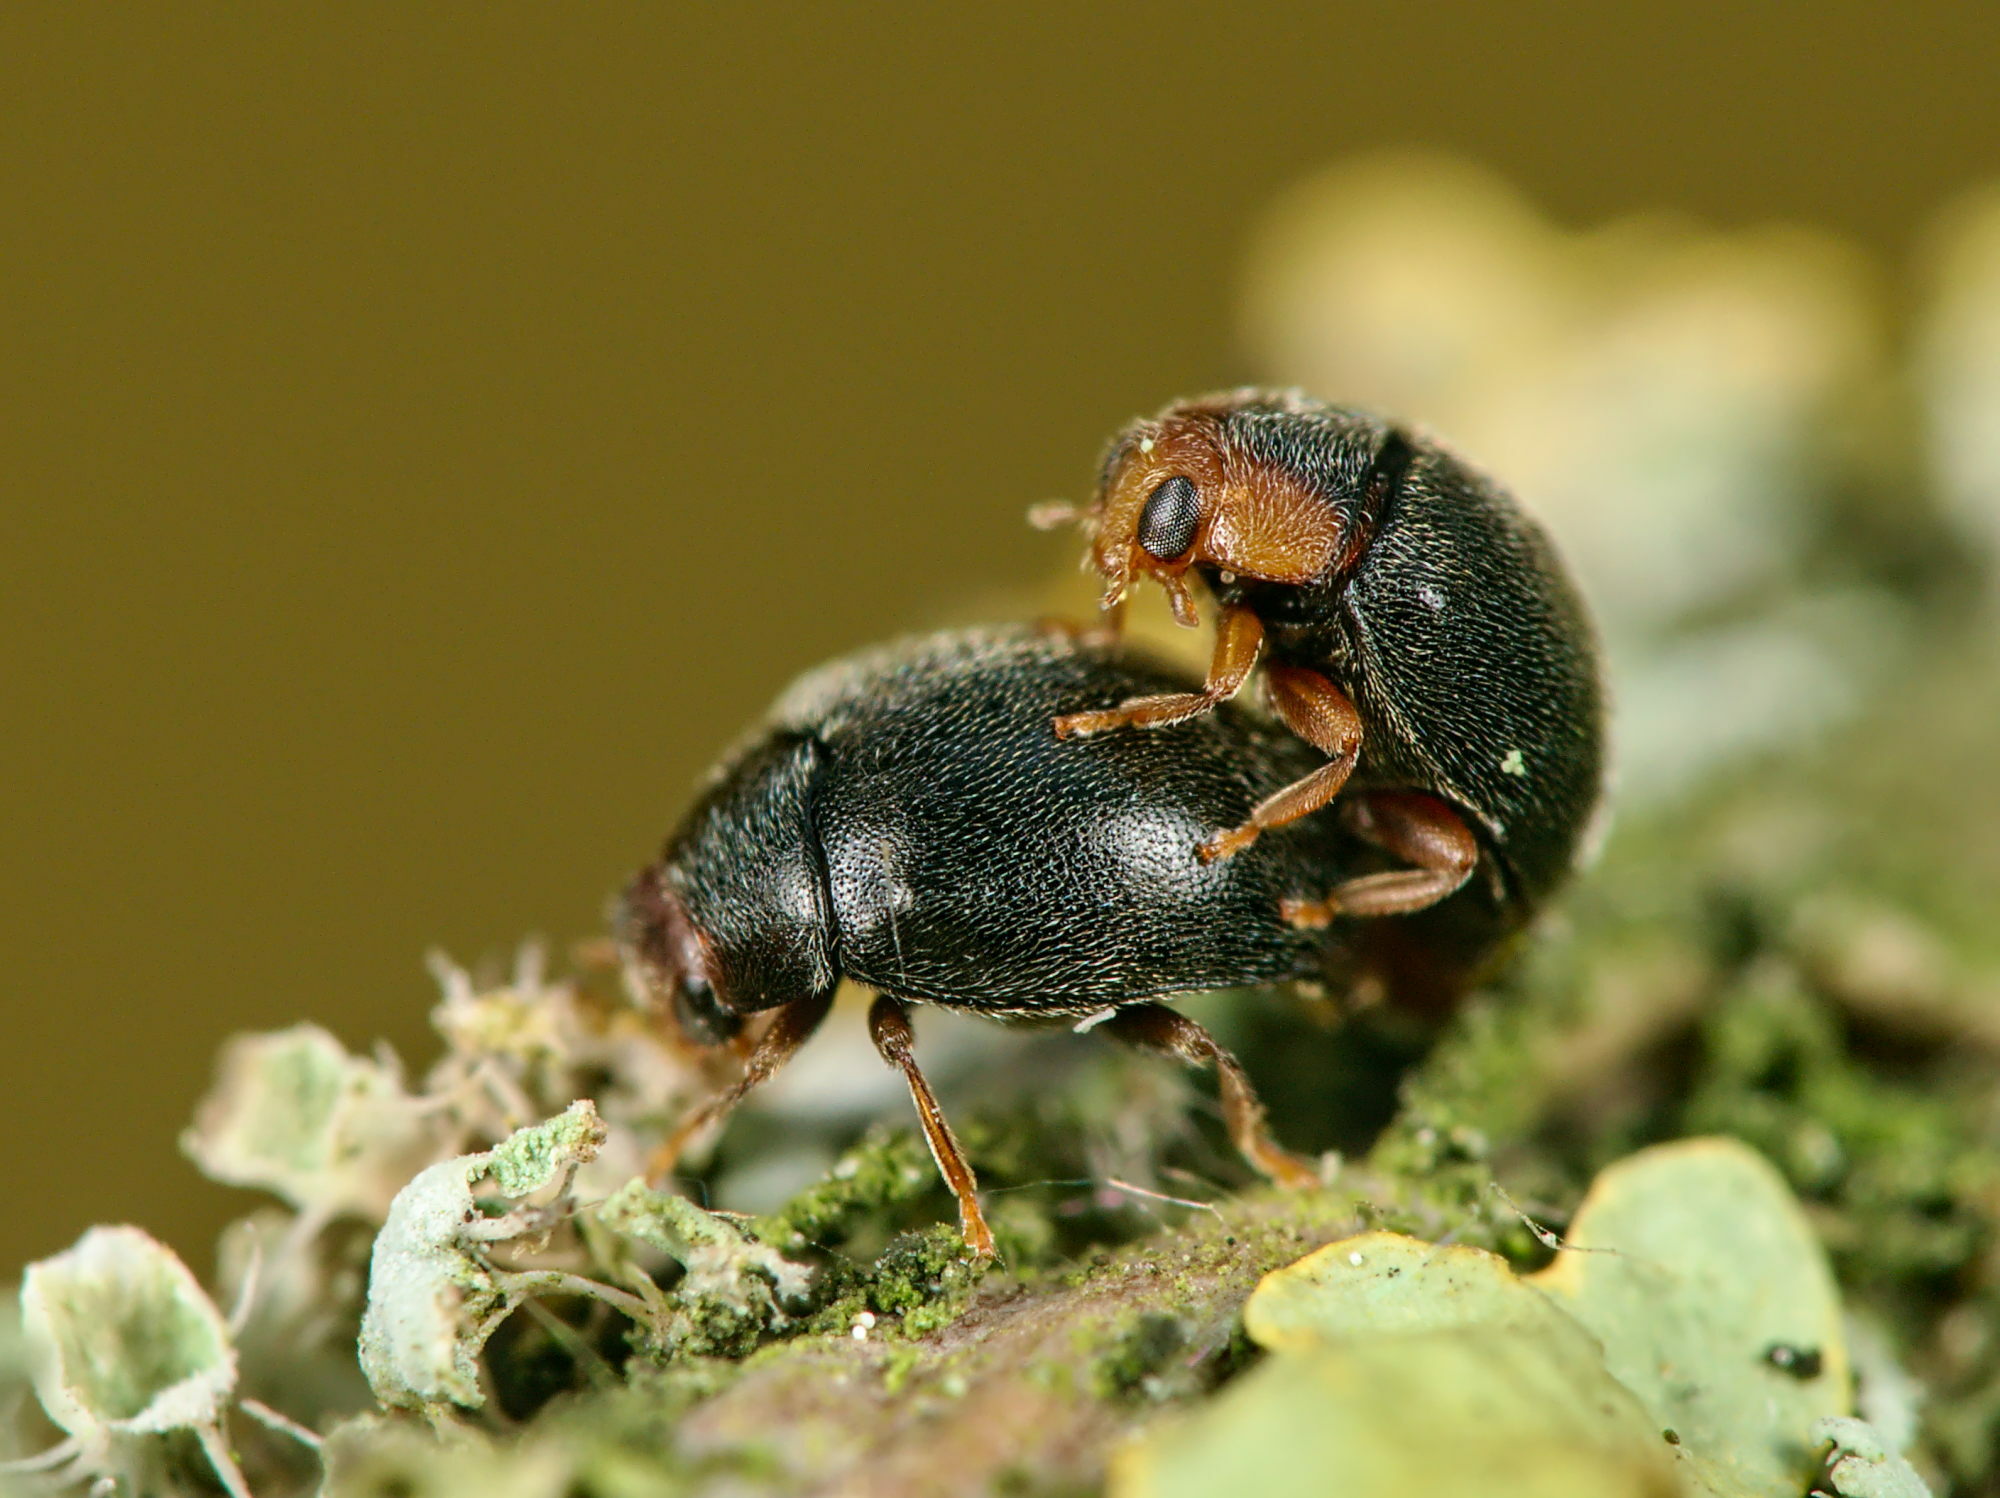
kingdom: Animalia
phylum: Arthropoda
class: Insecta
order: Coleoptera
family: Coccinellidae
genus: Scymnus
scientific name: Scymnus auritus
